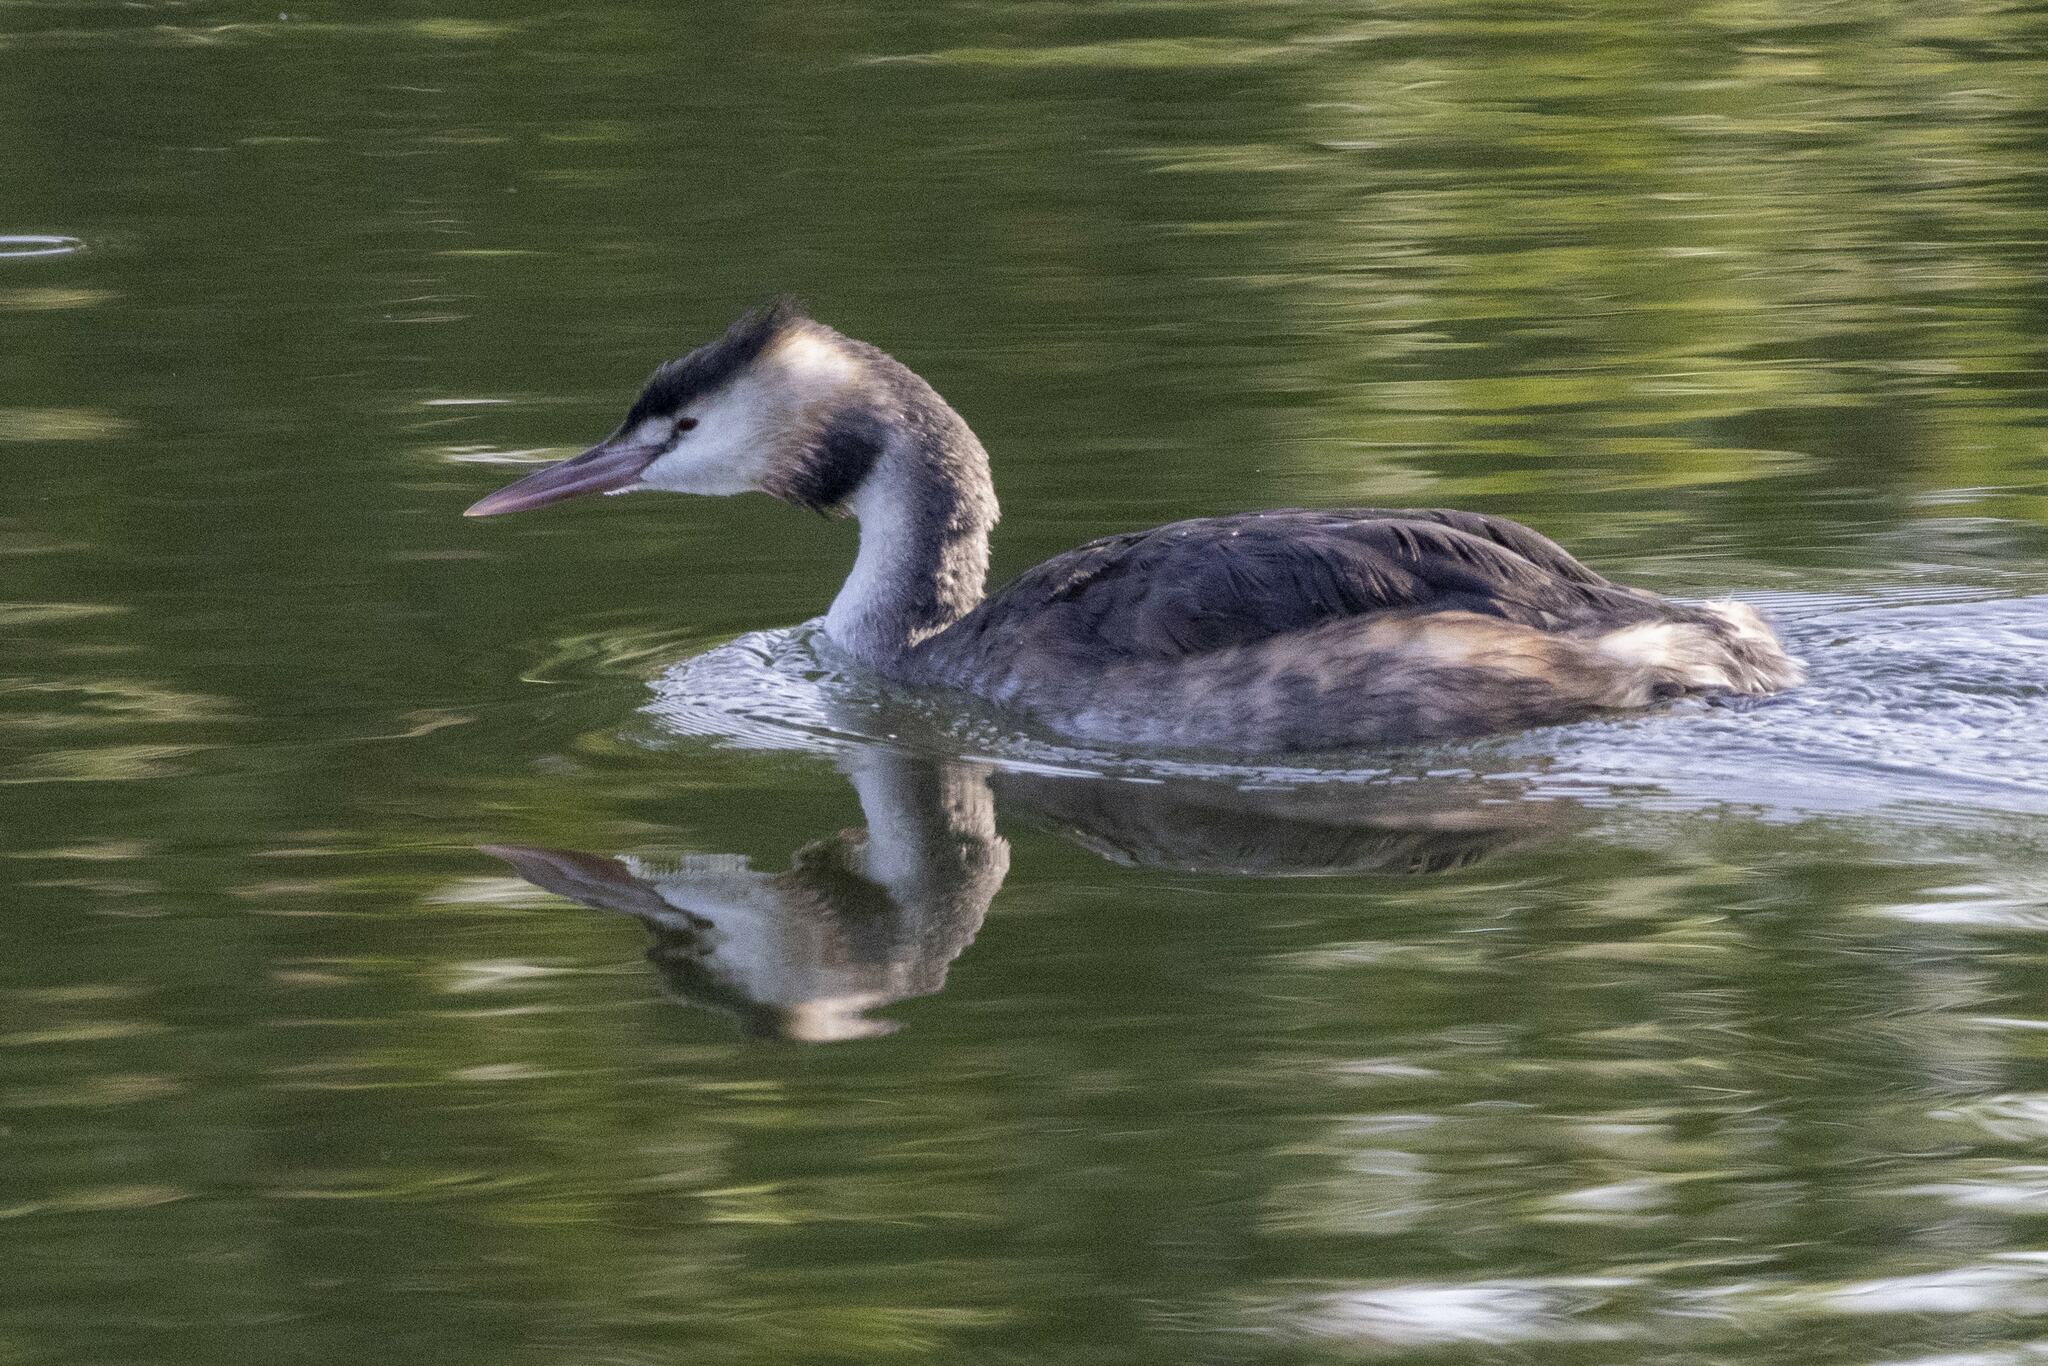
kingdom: Animalia
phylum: Chordata
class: Aves
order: Podicipediformes
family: Podicipedidae
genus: Podiceps
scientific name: Podiceps cristatus
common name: Great crested grebe
